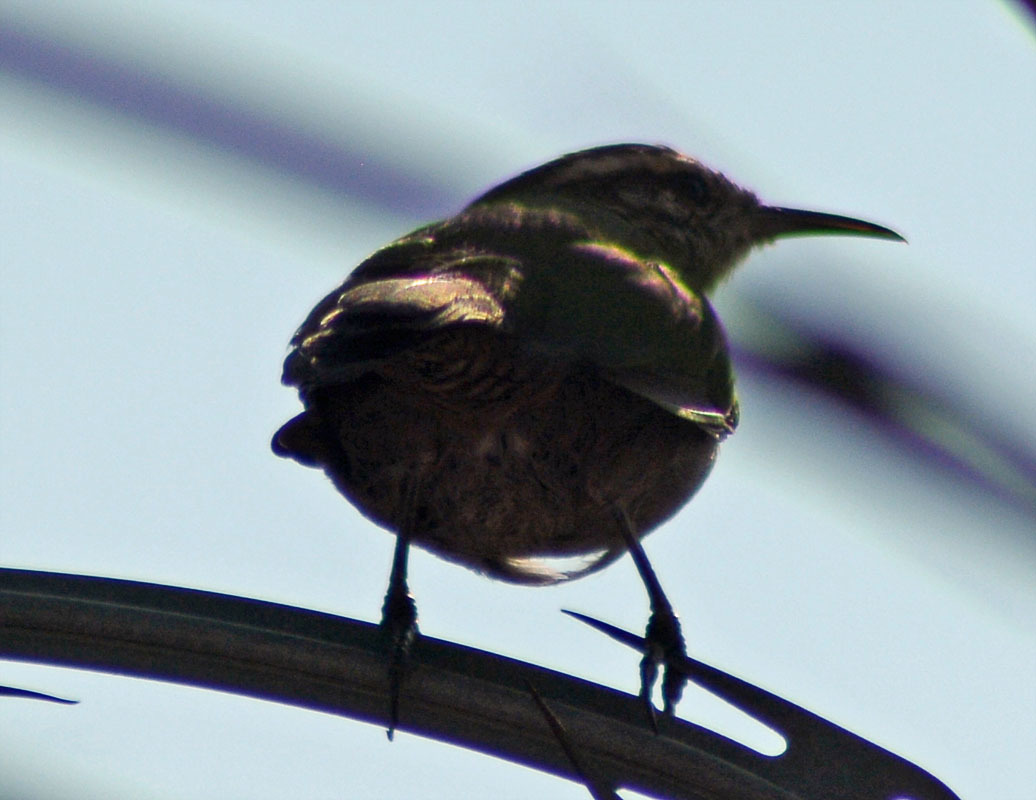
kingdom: Animalia
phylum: Chordata
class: Aves
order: Passeriformes
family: Troglodytidae
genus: Thryomanes
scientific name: Thryomanes bewickii
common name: Bewick's wren
